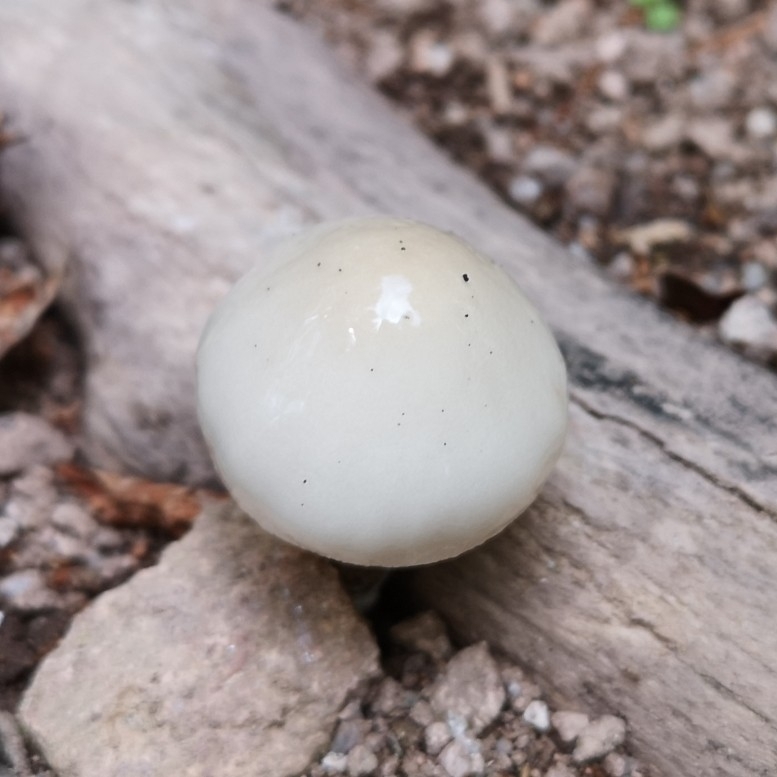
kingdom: Fungi
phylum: Basidiomycota
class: Agaricomycetes
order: Agaricales
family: Physalacriaceae
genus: Mucidula
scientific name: Mucidula mucida
